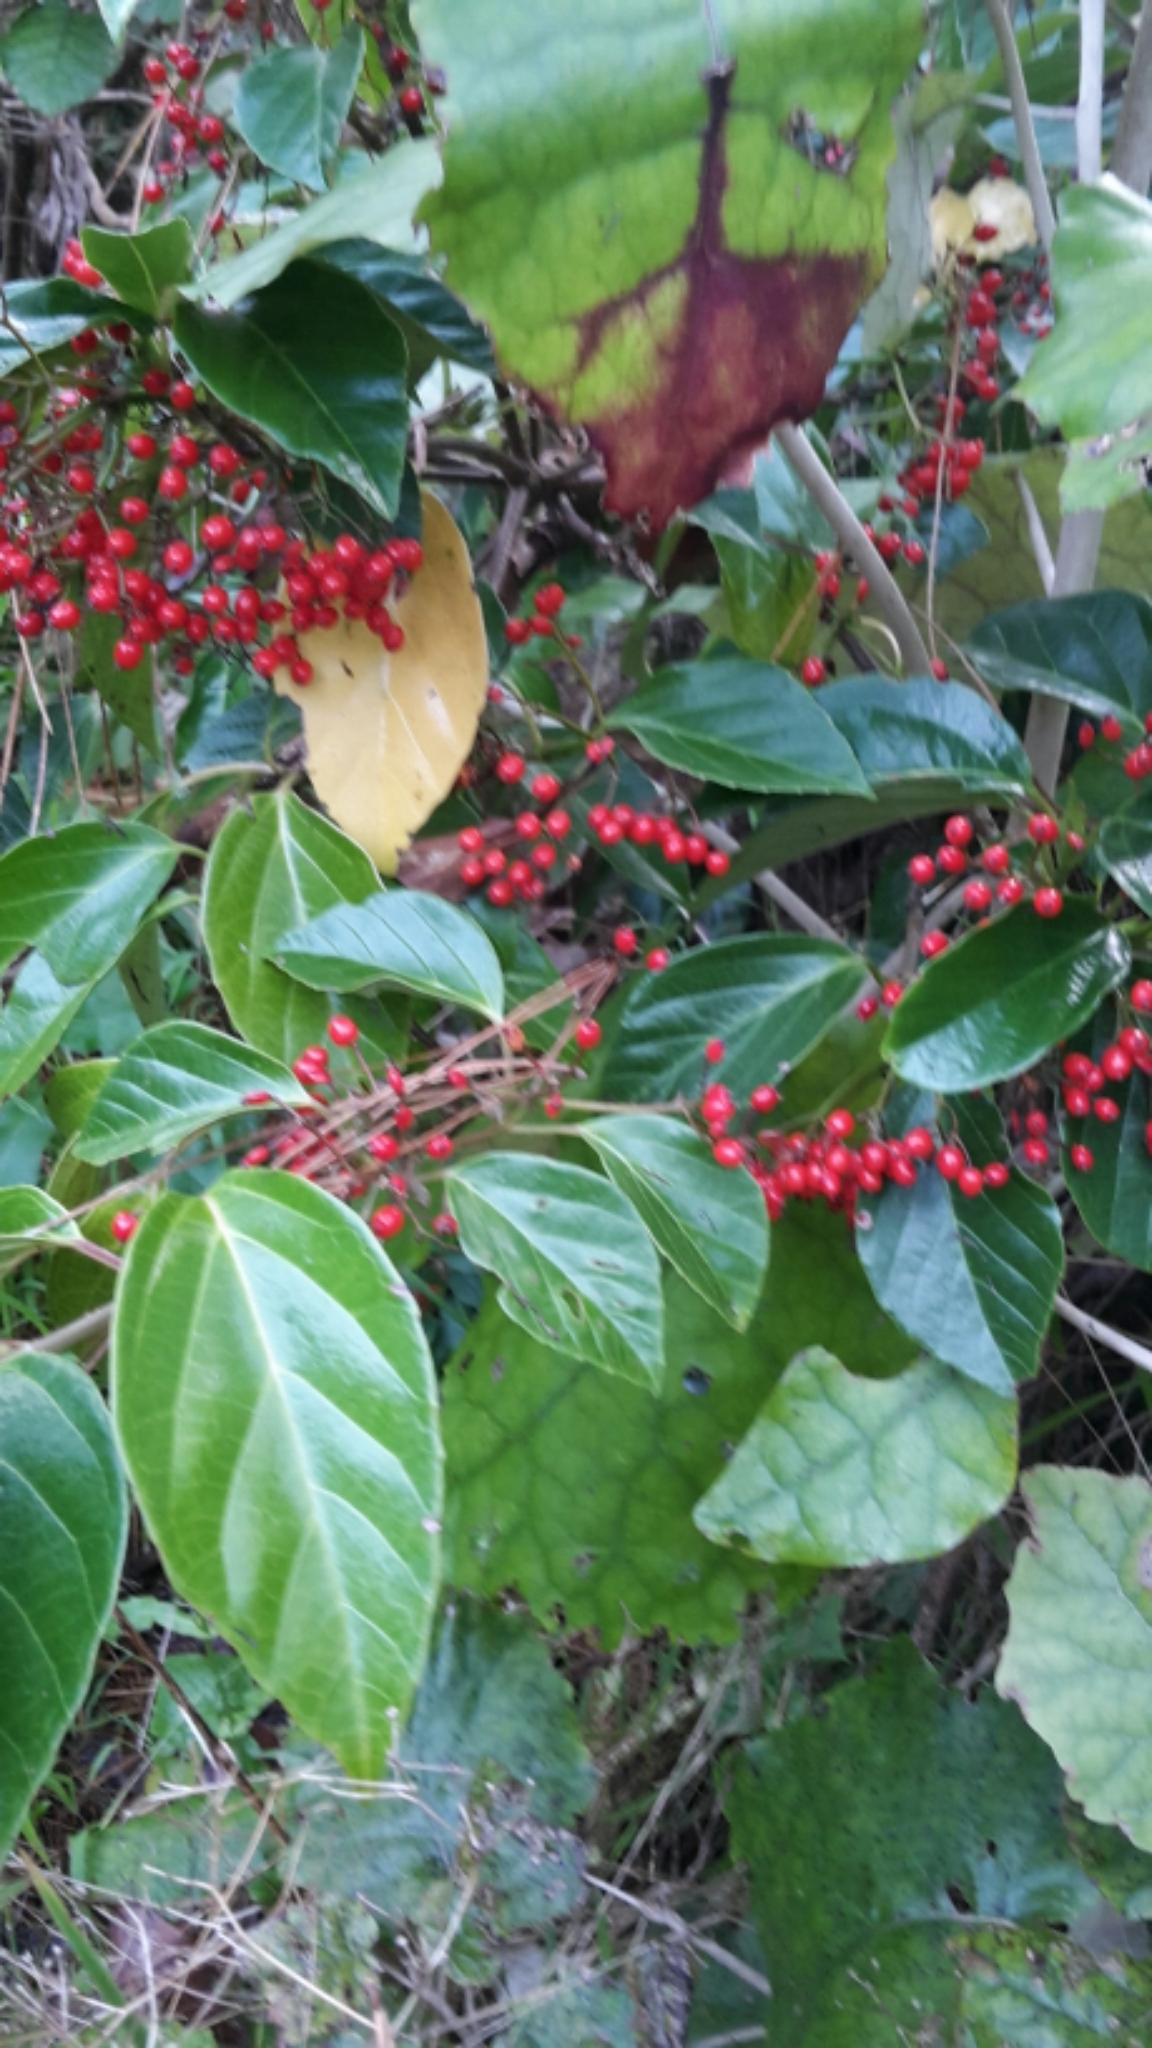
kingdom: Plantae
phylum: Tracheophyta
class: Magnoliopsida
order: Dipsacales
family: Viburnaceae
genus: Viburnum
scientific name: Viburnum odoratissimum
